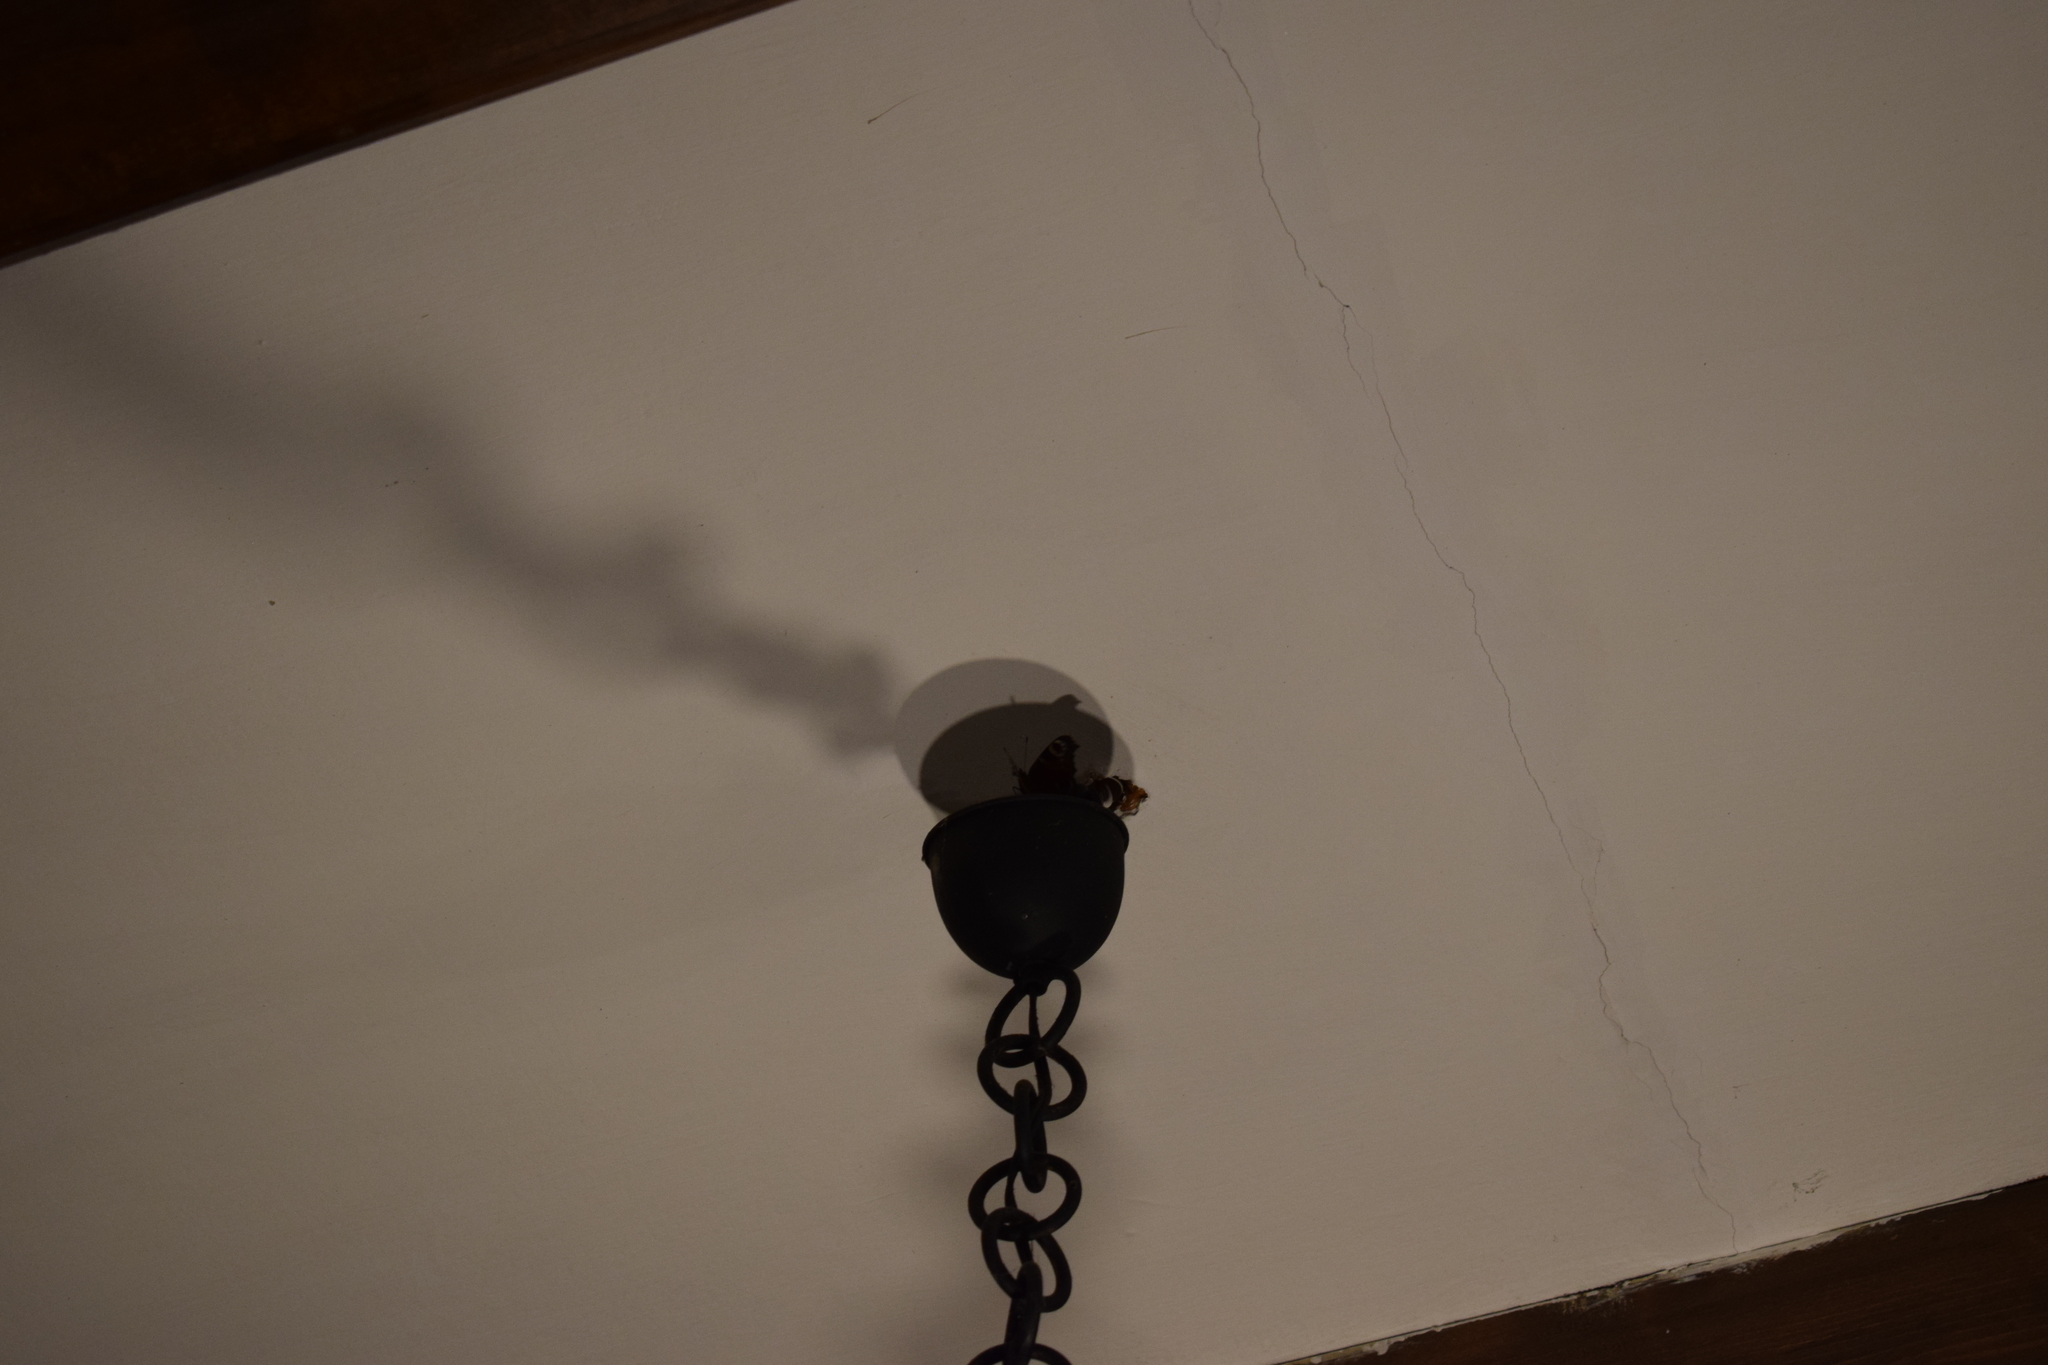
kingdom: Animalia
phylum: Arthropoda
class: Insecta
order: Lepidoptera
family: Nymphalidae
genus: Aglais
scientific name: Aglais io
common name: Peacock
